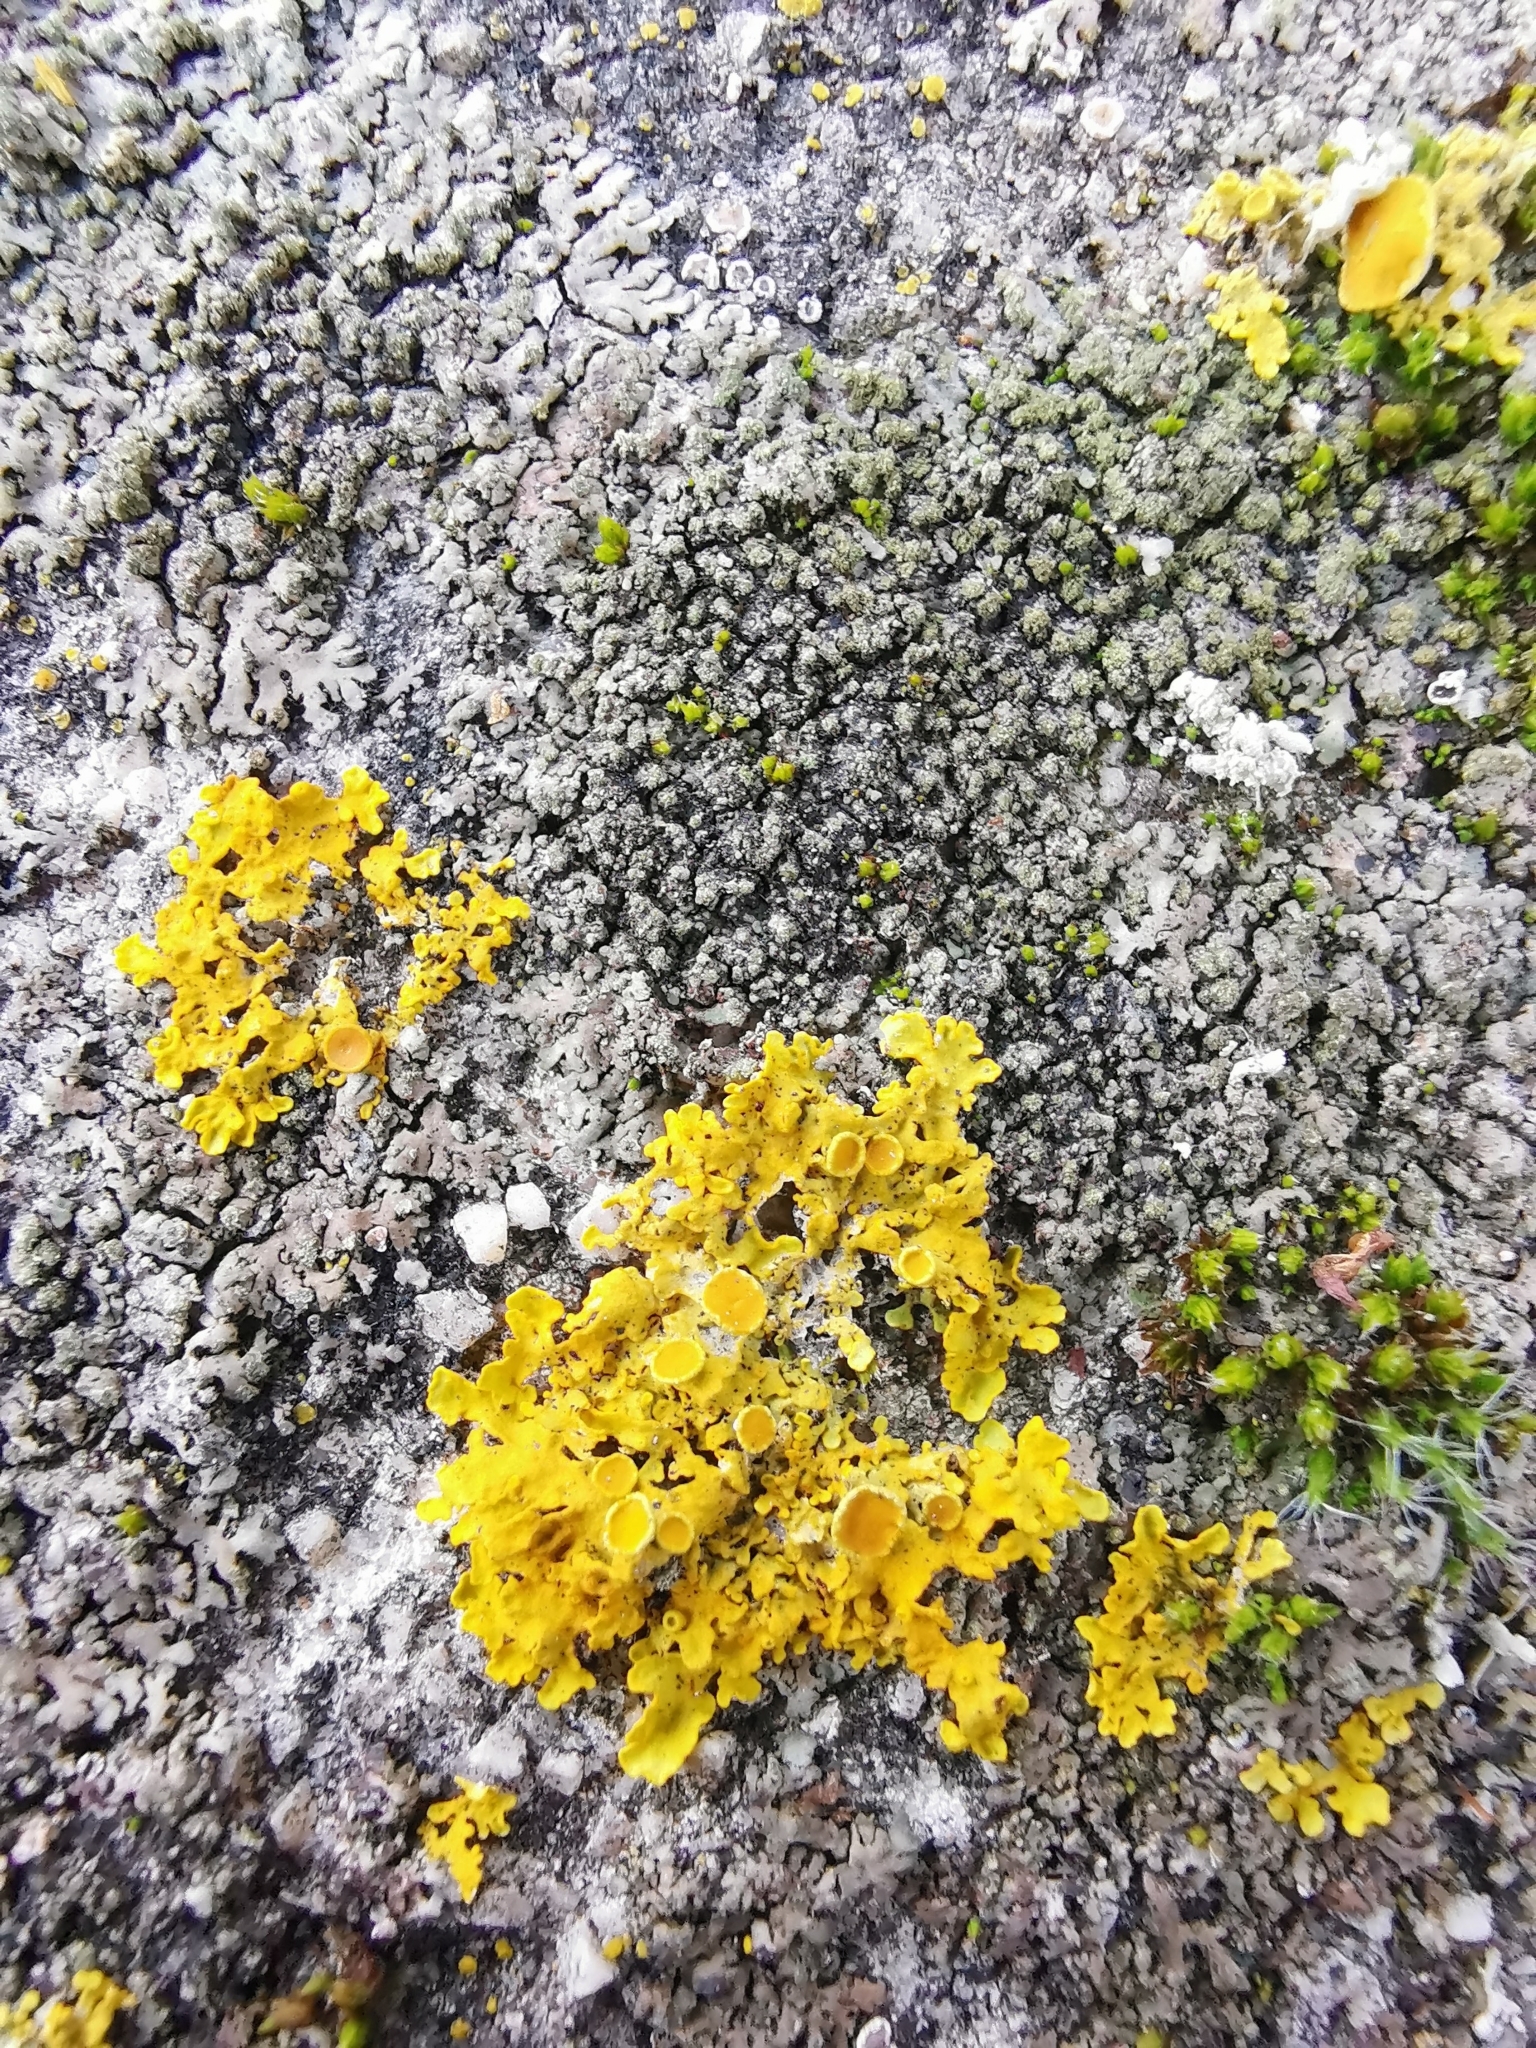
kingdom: Fungi
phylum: Ascomycota
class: Lecanoromycetes
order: Teloschistales
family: Teloschistaceae
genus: Xanthoria
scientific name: Xanthoria parietina
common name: Common orange lichen
